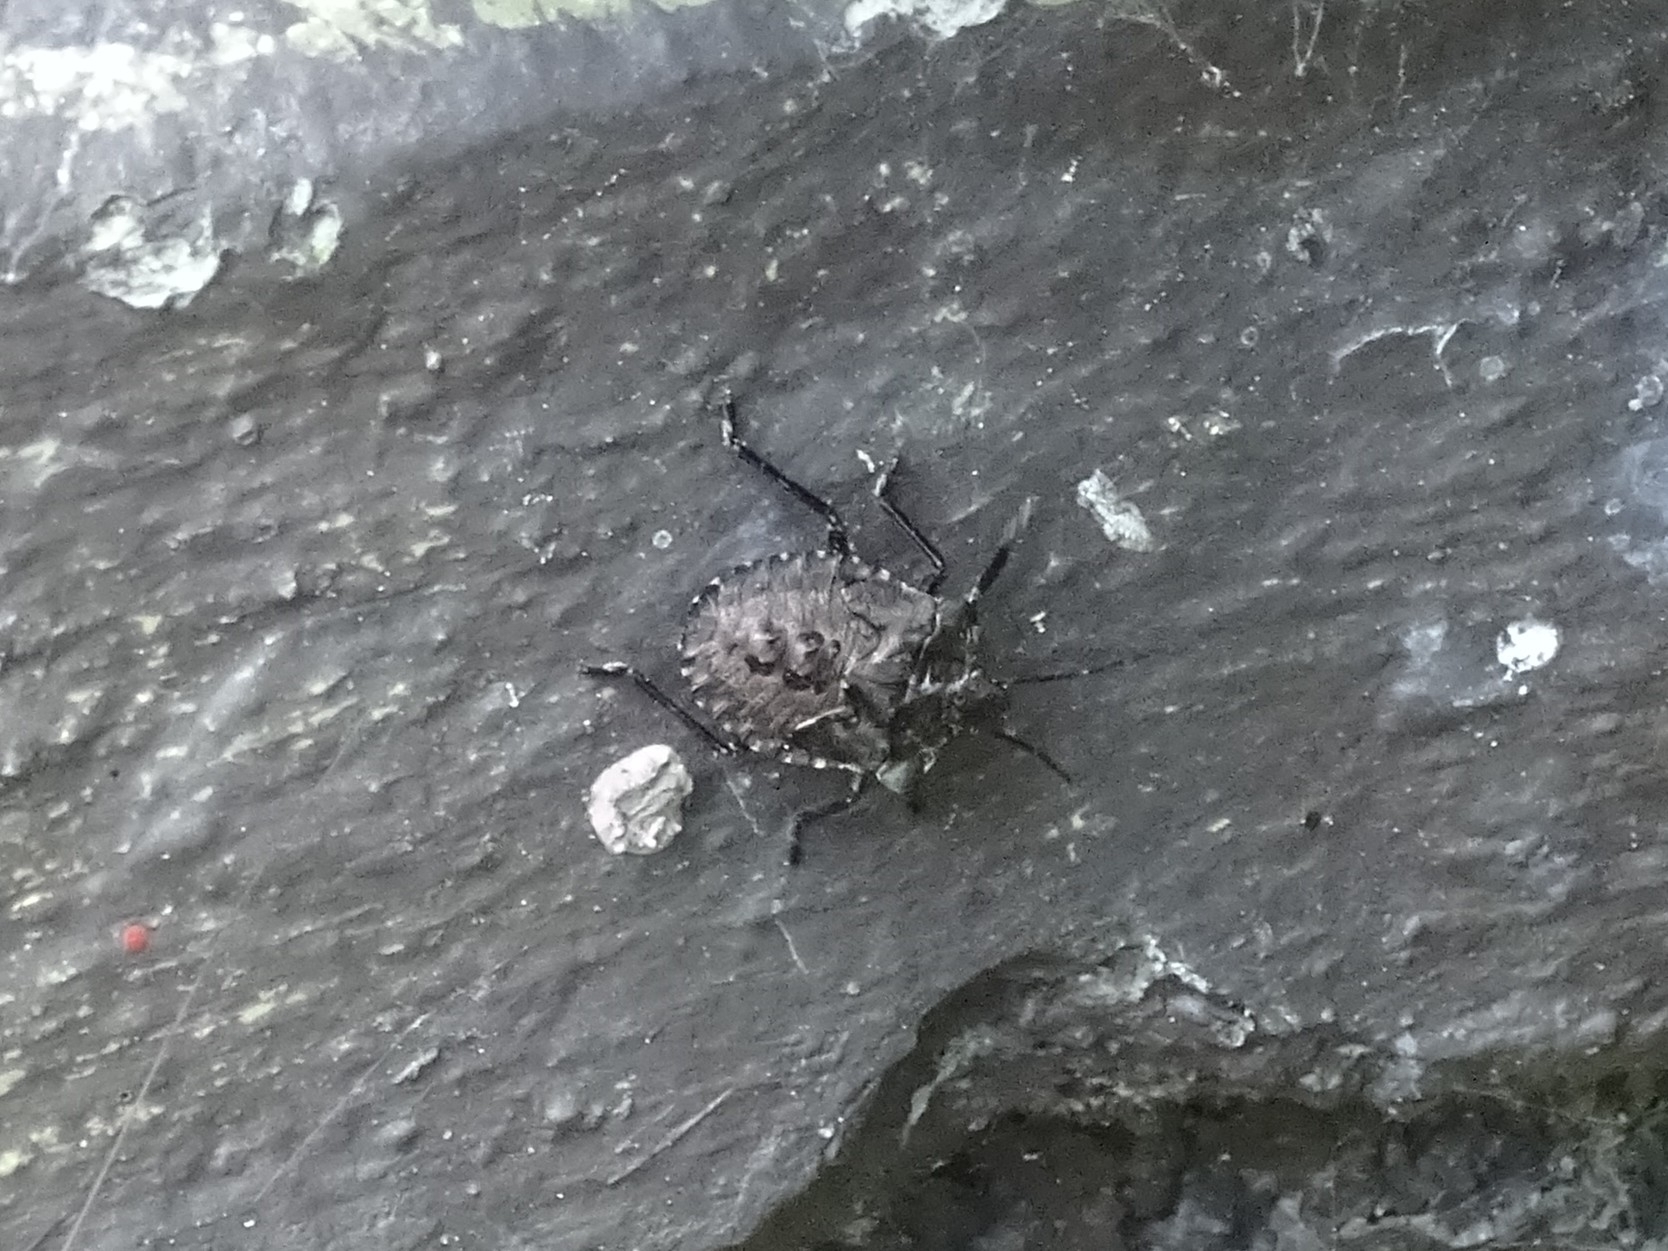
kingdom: Animalia
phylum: Arthropoda
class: Insecta
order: Hemiptera
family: Pentatomidae
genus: Pentatoma
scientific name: Pentatoma rufipes
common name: Forest bug
